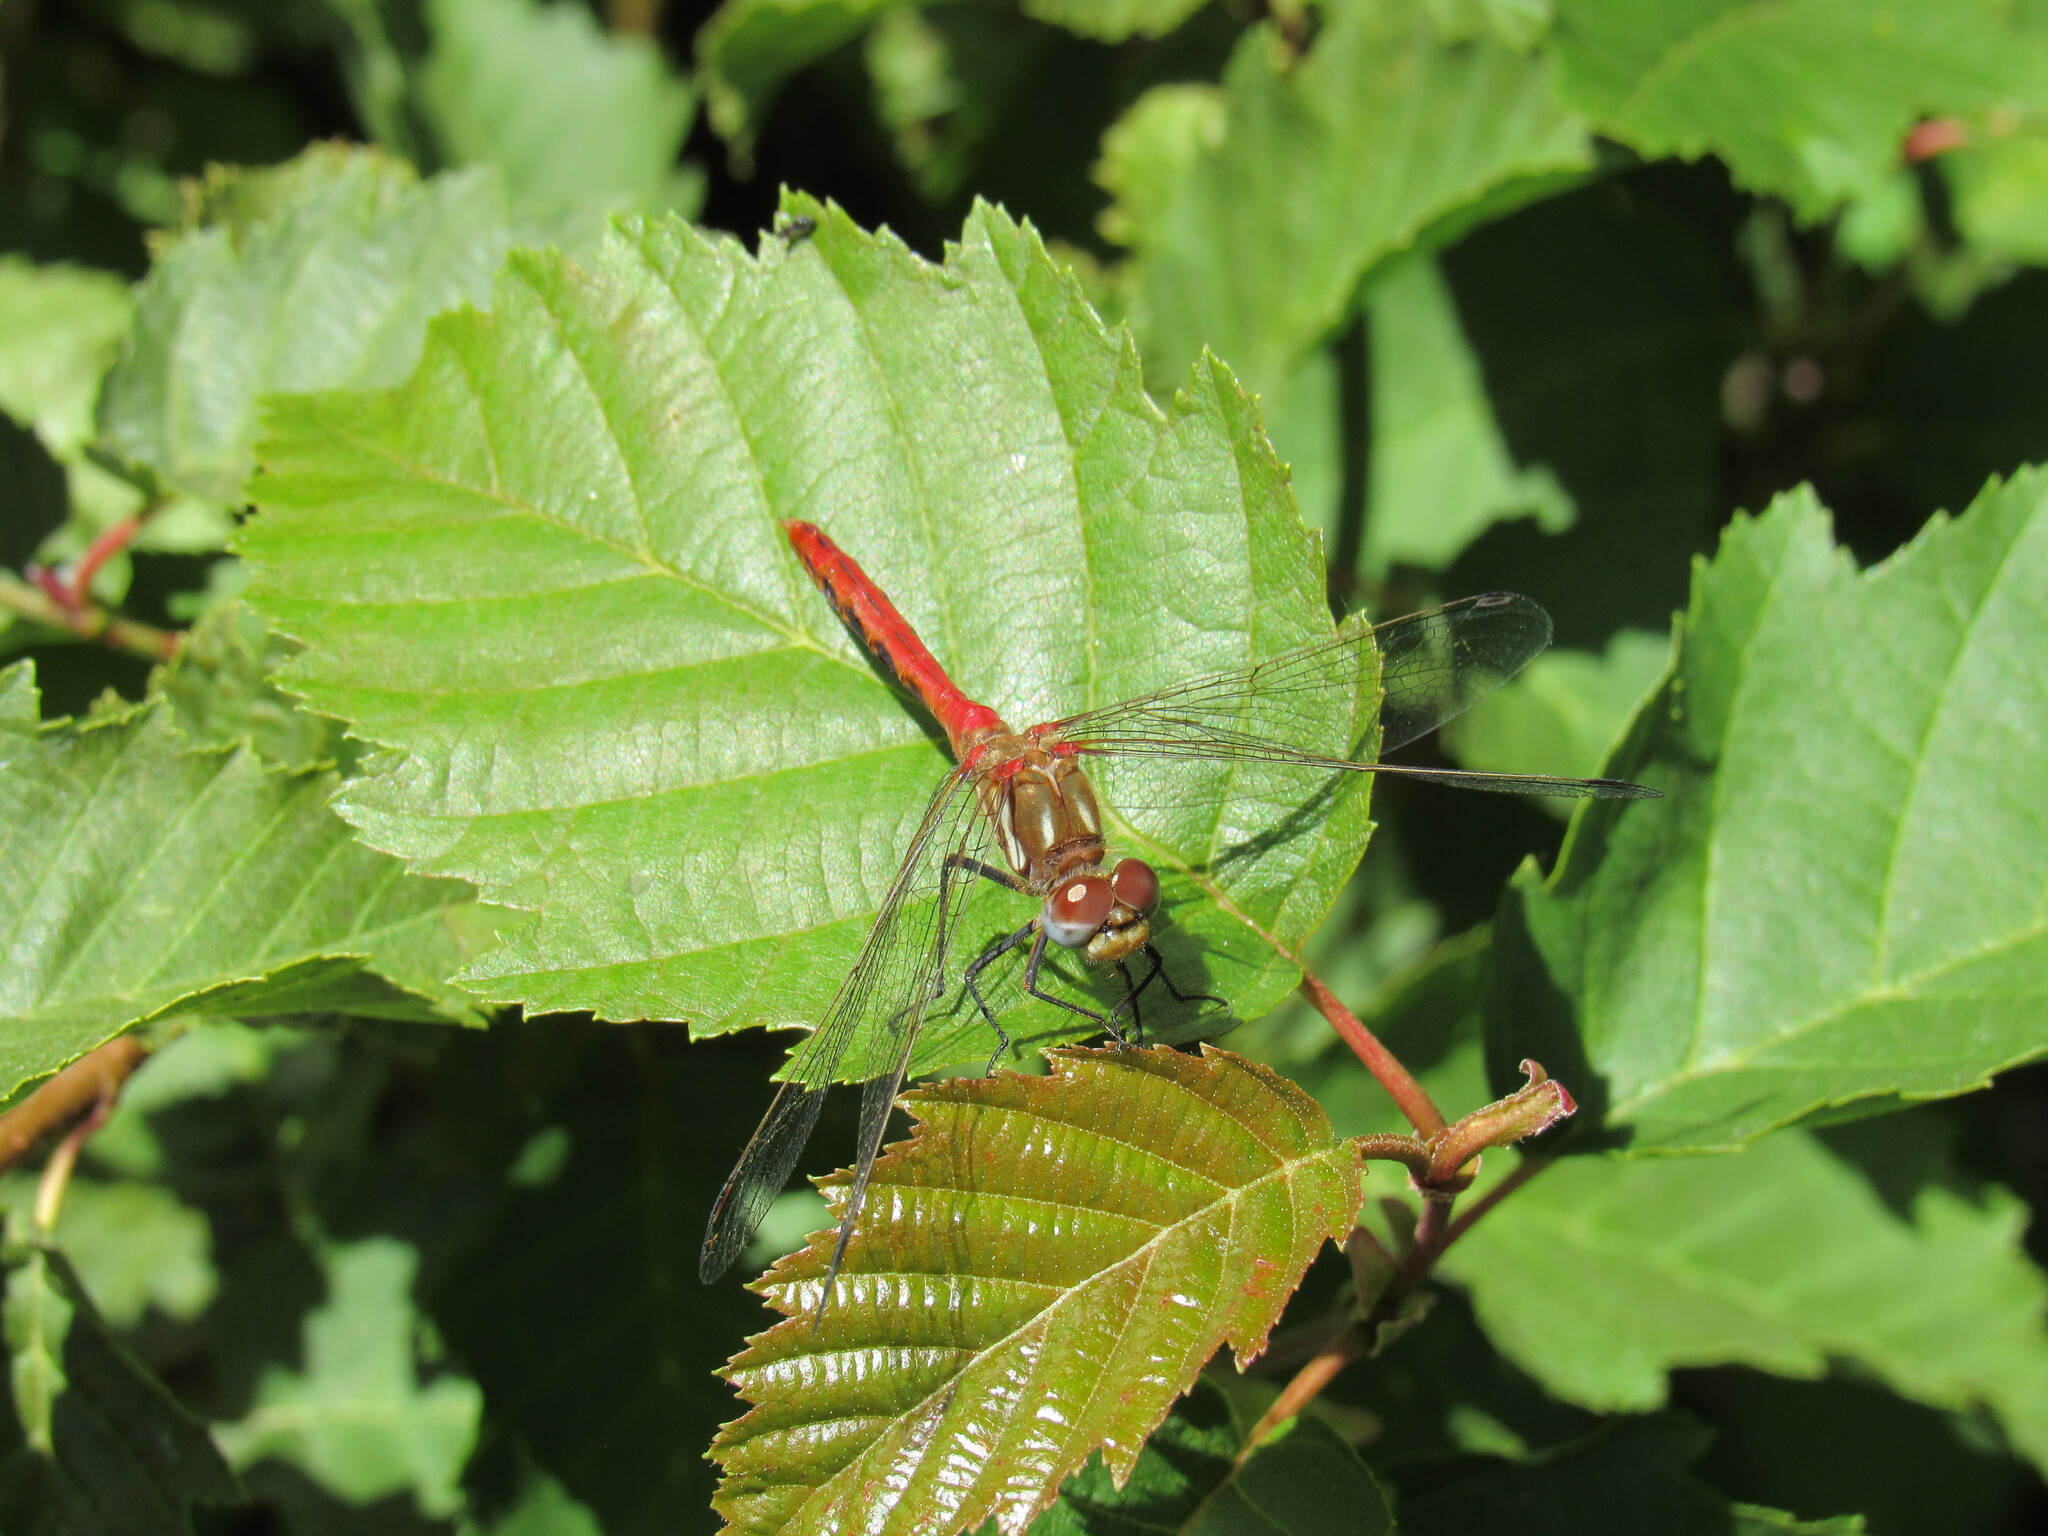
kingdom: Animalia
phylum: Arthropoda
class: Insecta
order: Odonata
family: Libellulidae
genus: Sympetrum
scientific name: Sympetrum pallipes
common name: Striped meadowhawk
